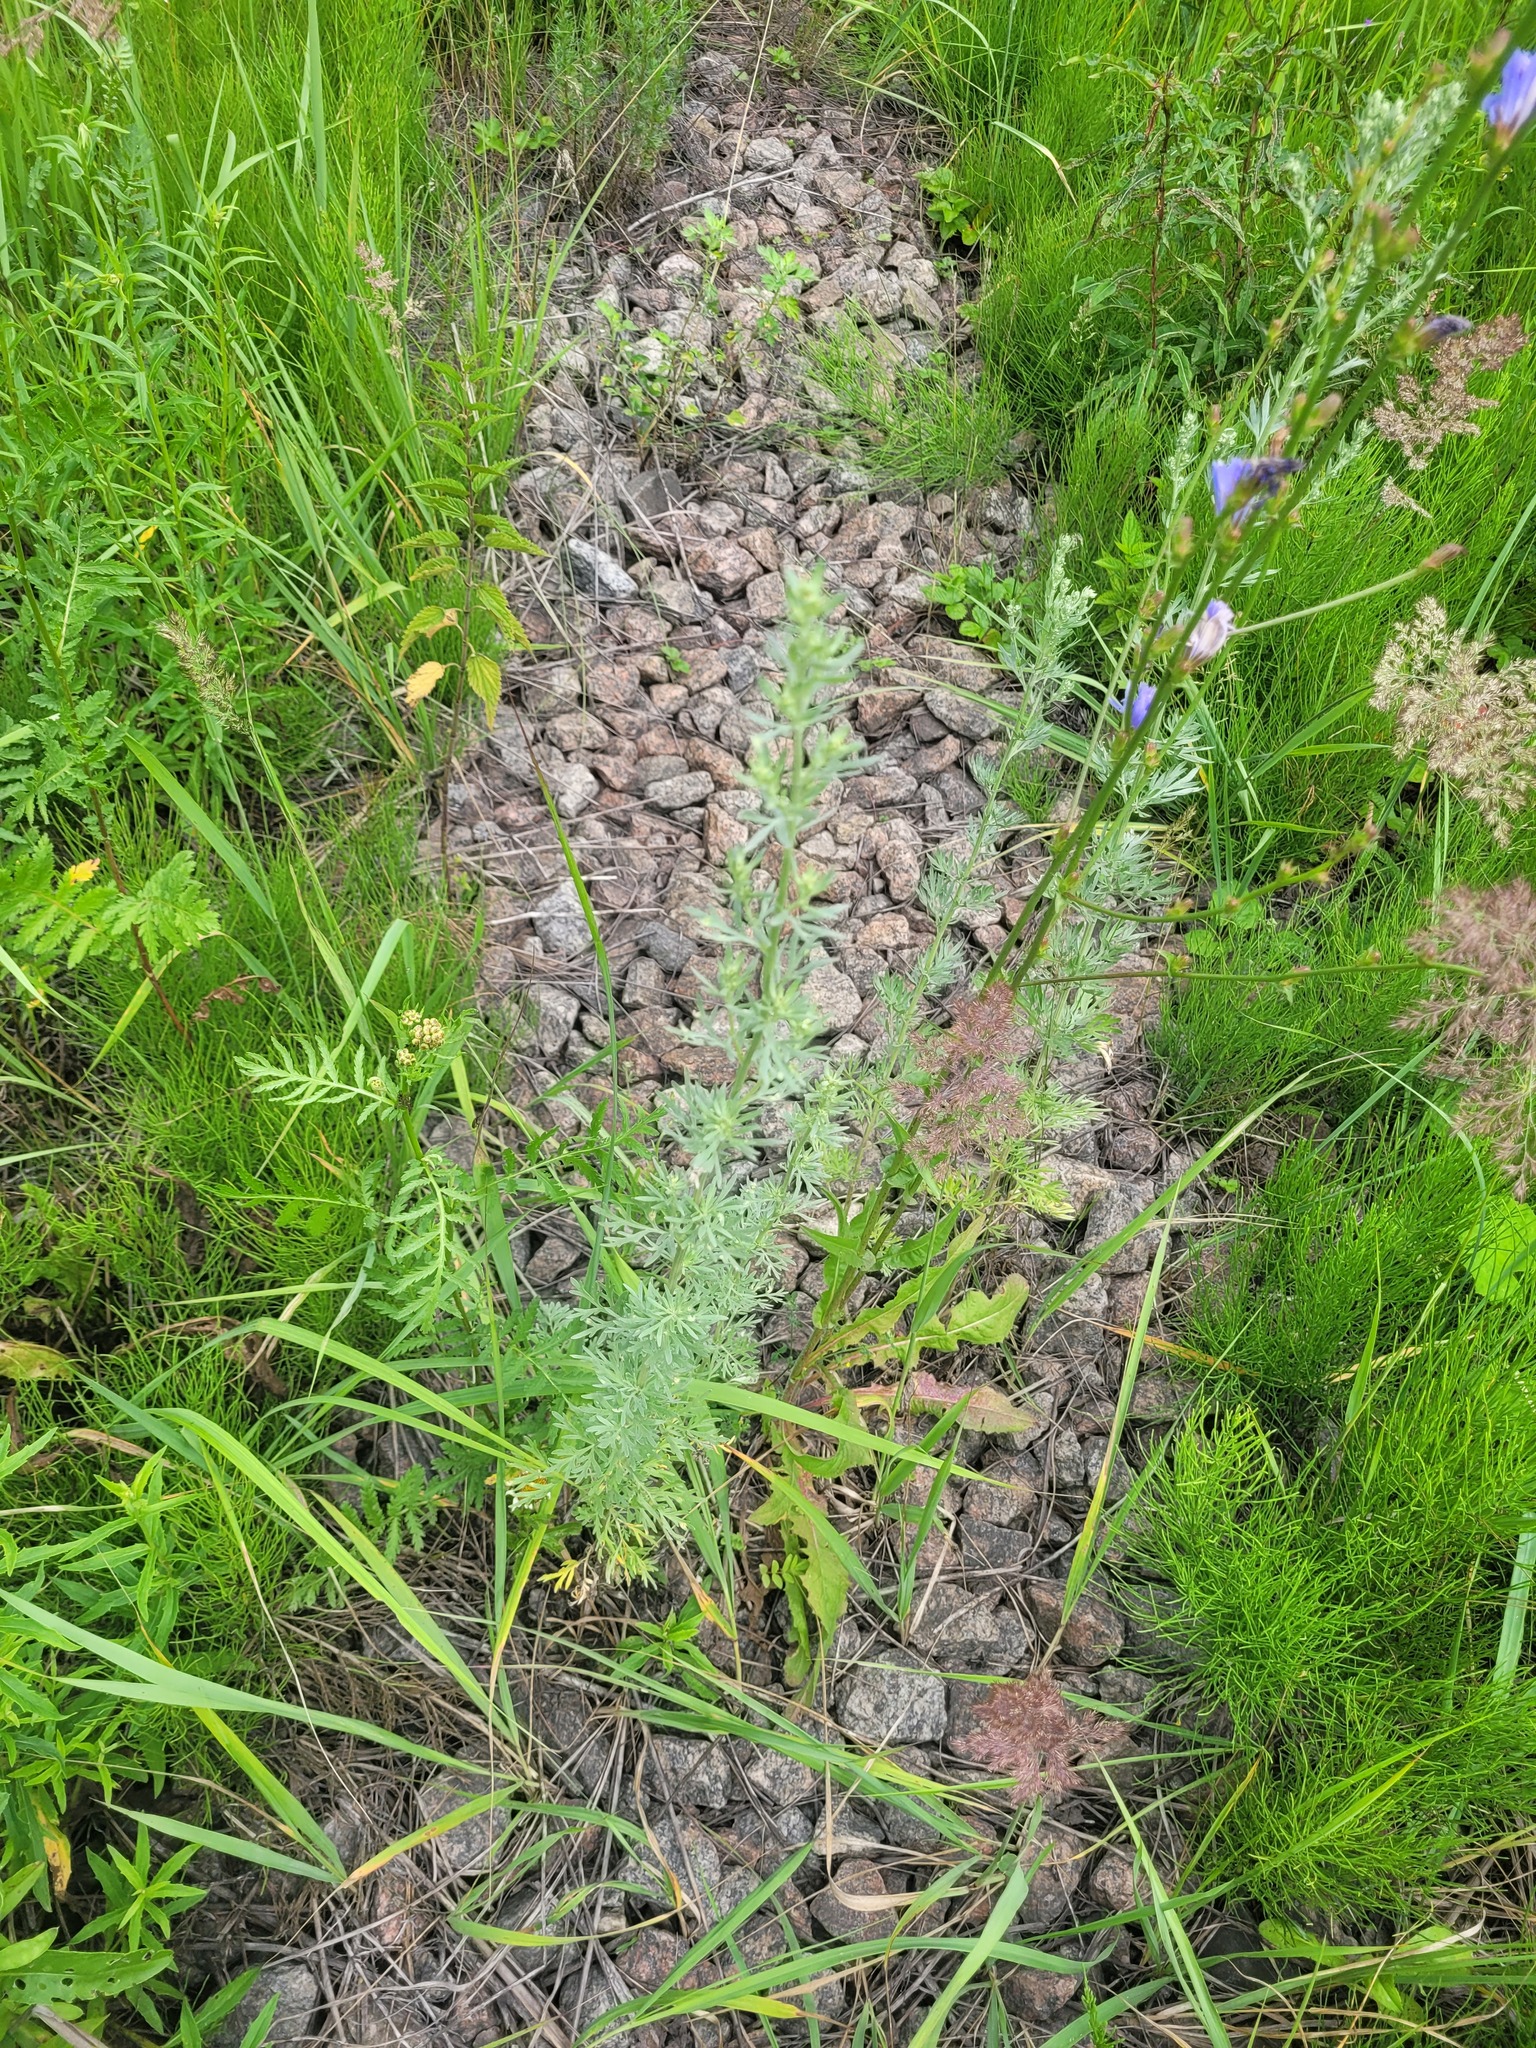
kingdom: Plantae
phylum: Tracheophyta
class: Magnoliopsida
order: Asterales
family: Asteraceae
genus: Artemisia
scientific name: Artemisia absinthium
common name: Wormwood
